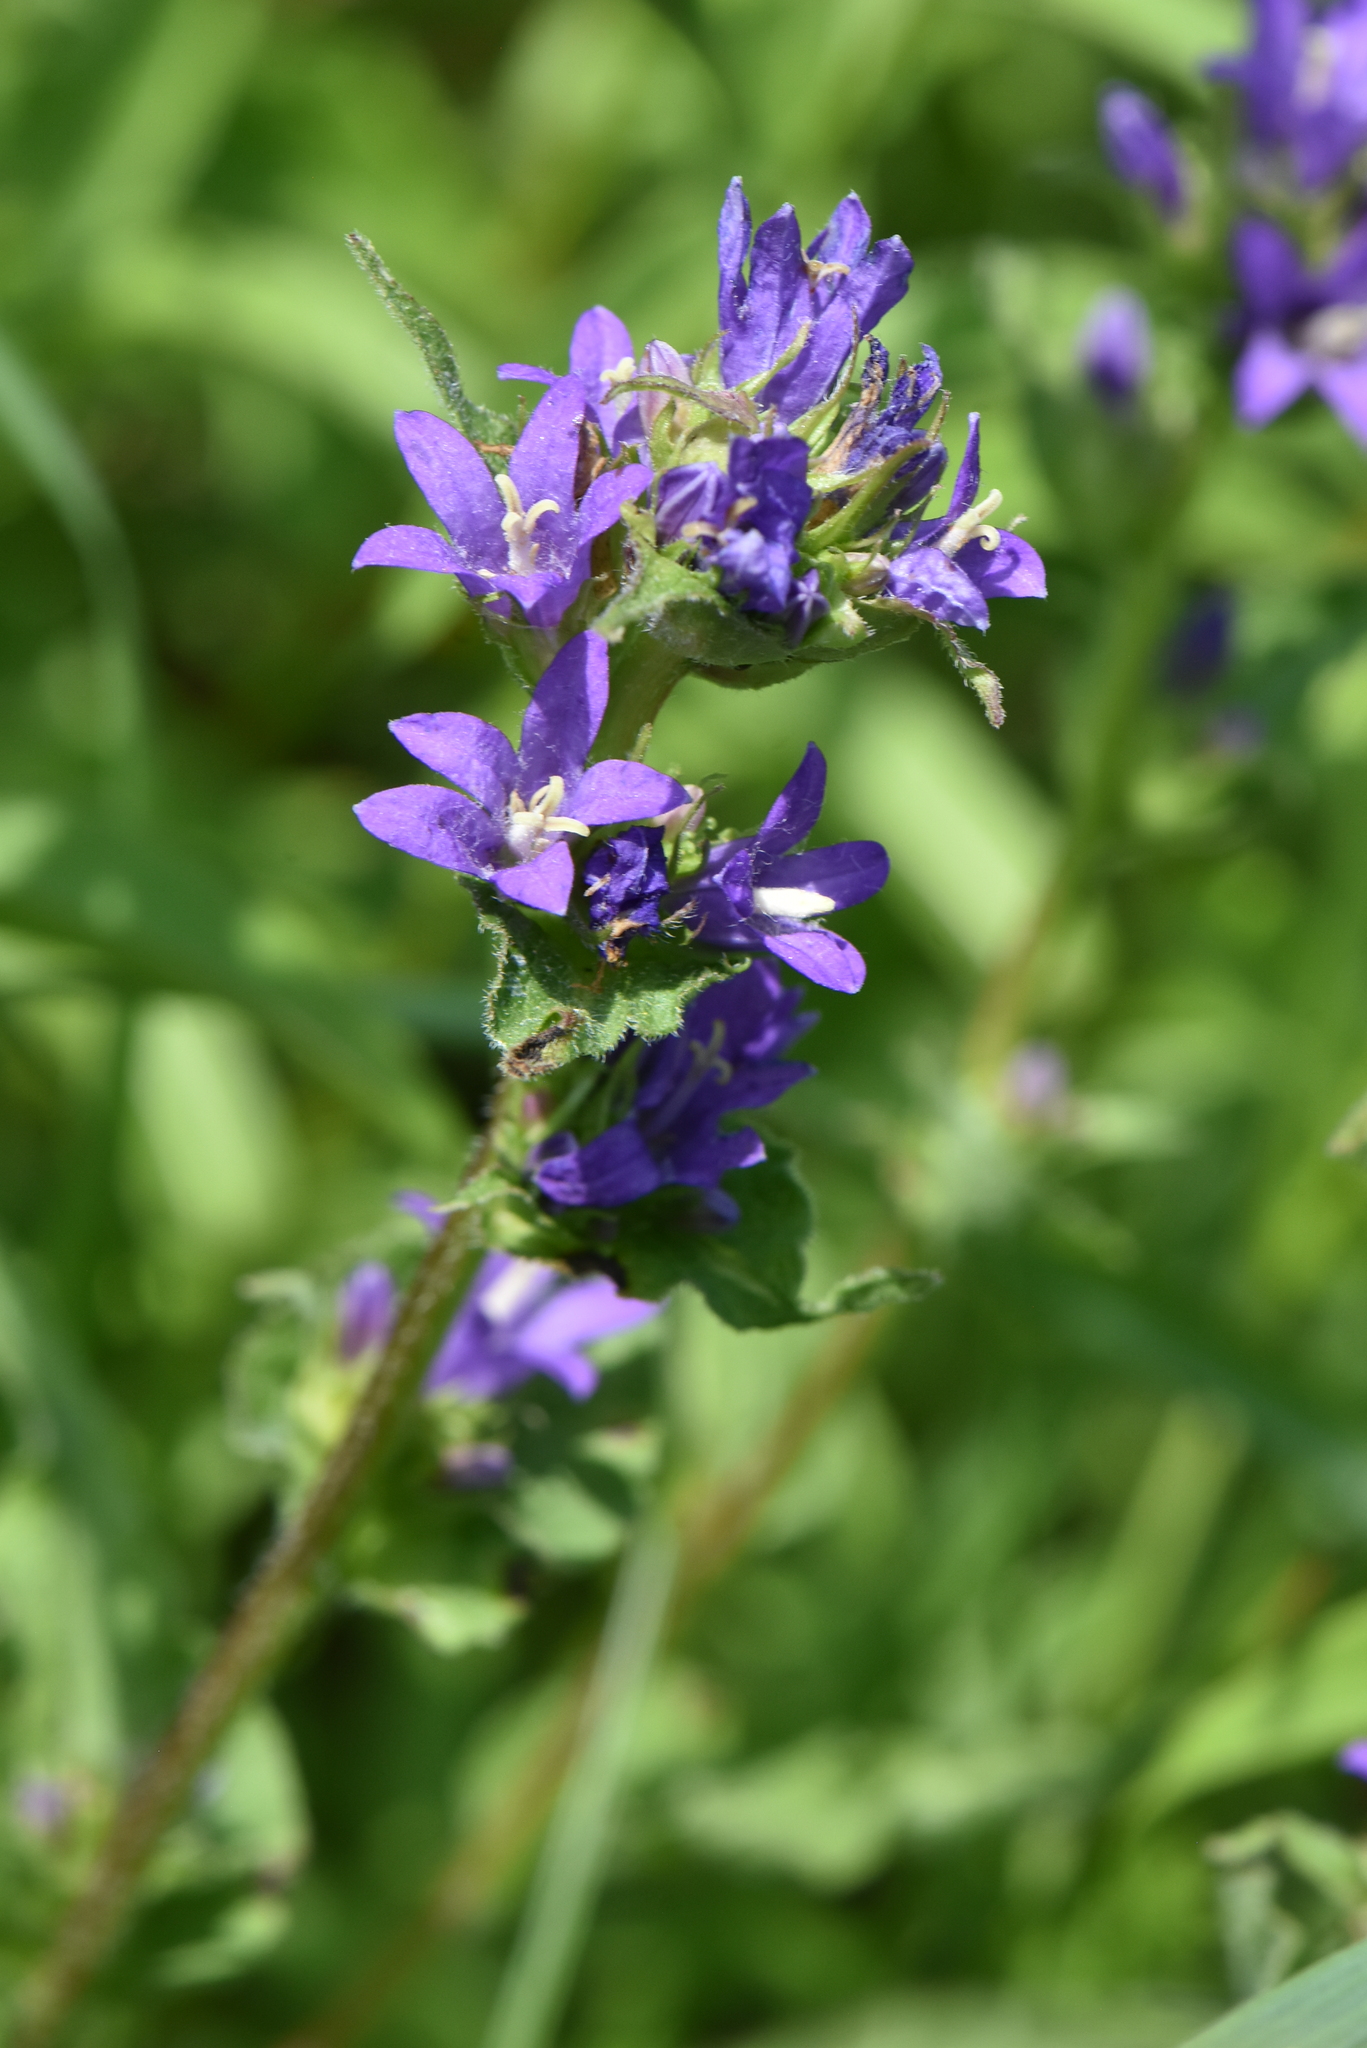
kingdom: Plantae
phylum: Tracheophyta
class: Magnoliopsida
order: Asterales
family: Campanulaceae
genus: Campanula
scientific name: Campanula glomerata
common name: Clustered bellflower
